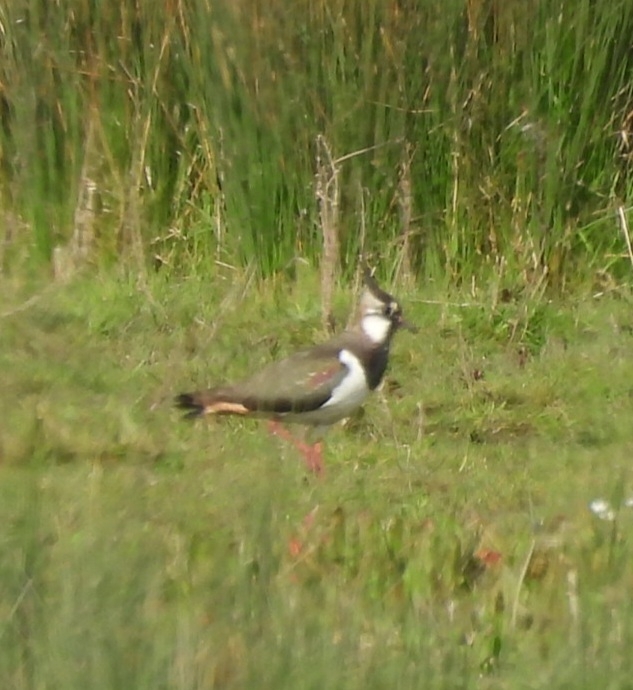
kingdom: Animalia
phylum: Chordata
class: Aves
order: Charadriiformes
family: Charadriidae
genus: Vanellus
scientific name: Vanellus vanellus
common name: Northern lapwing
